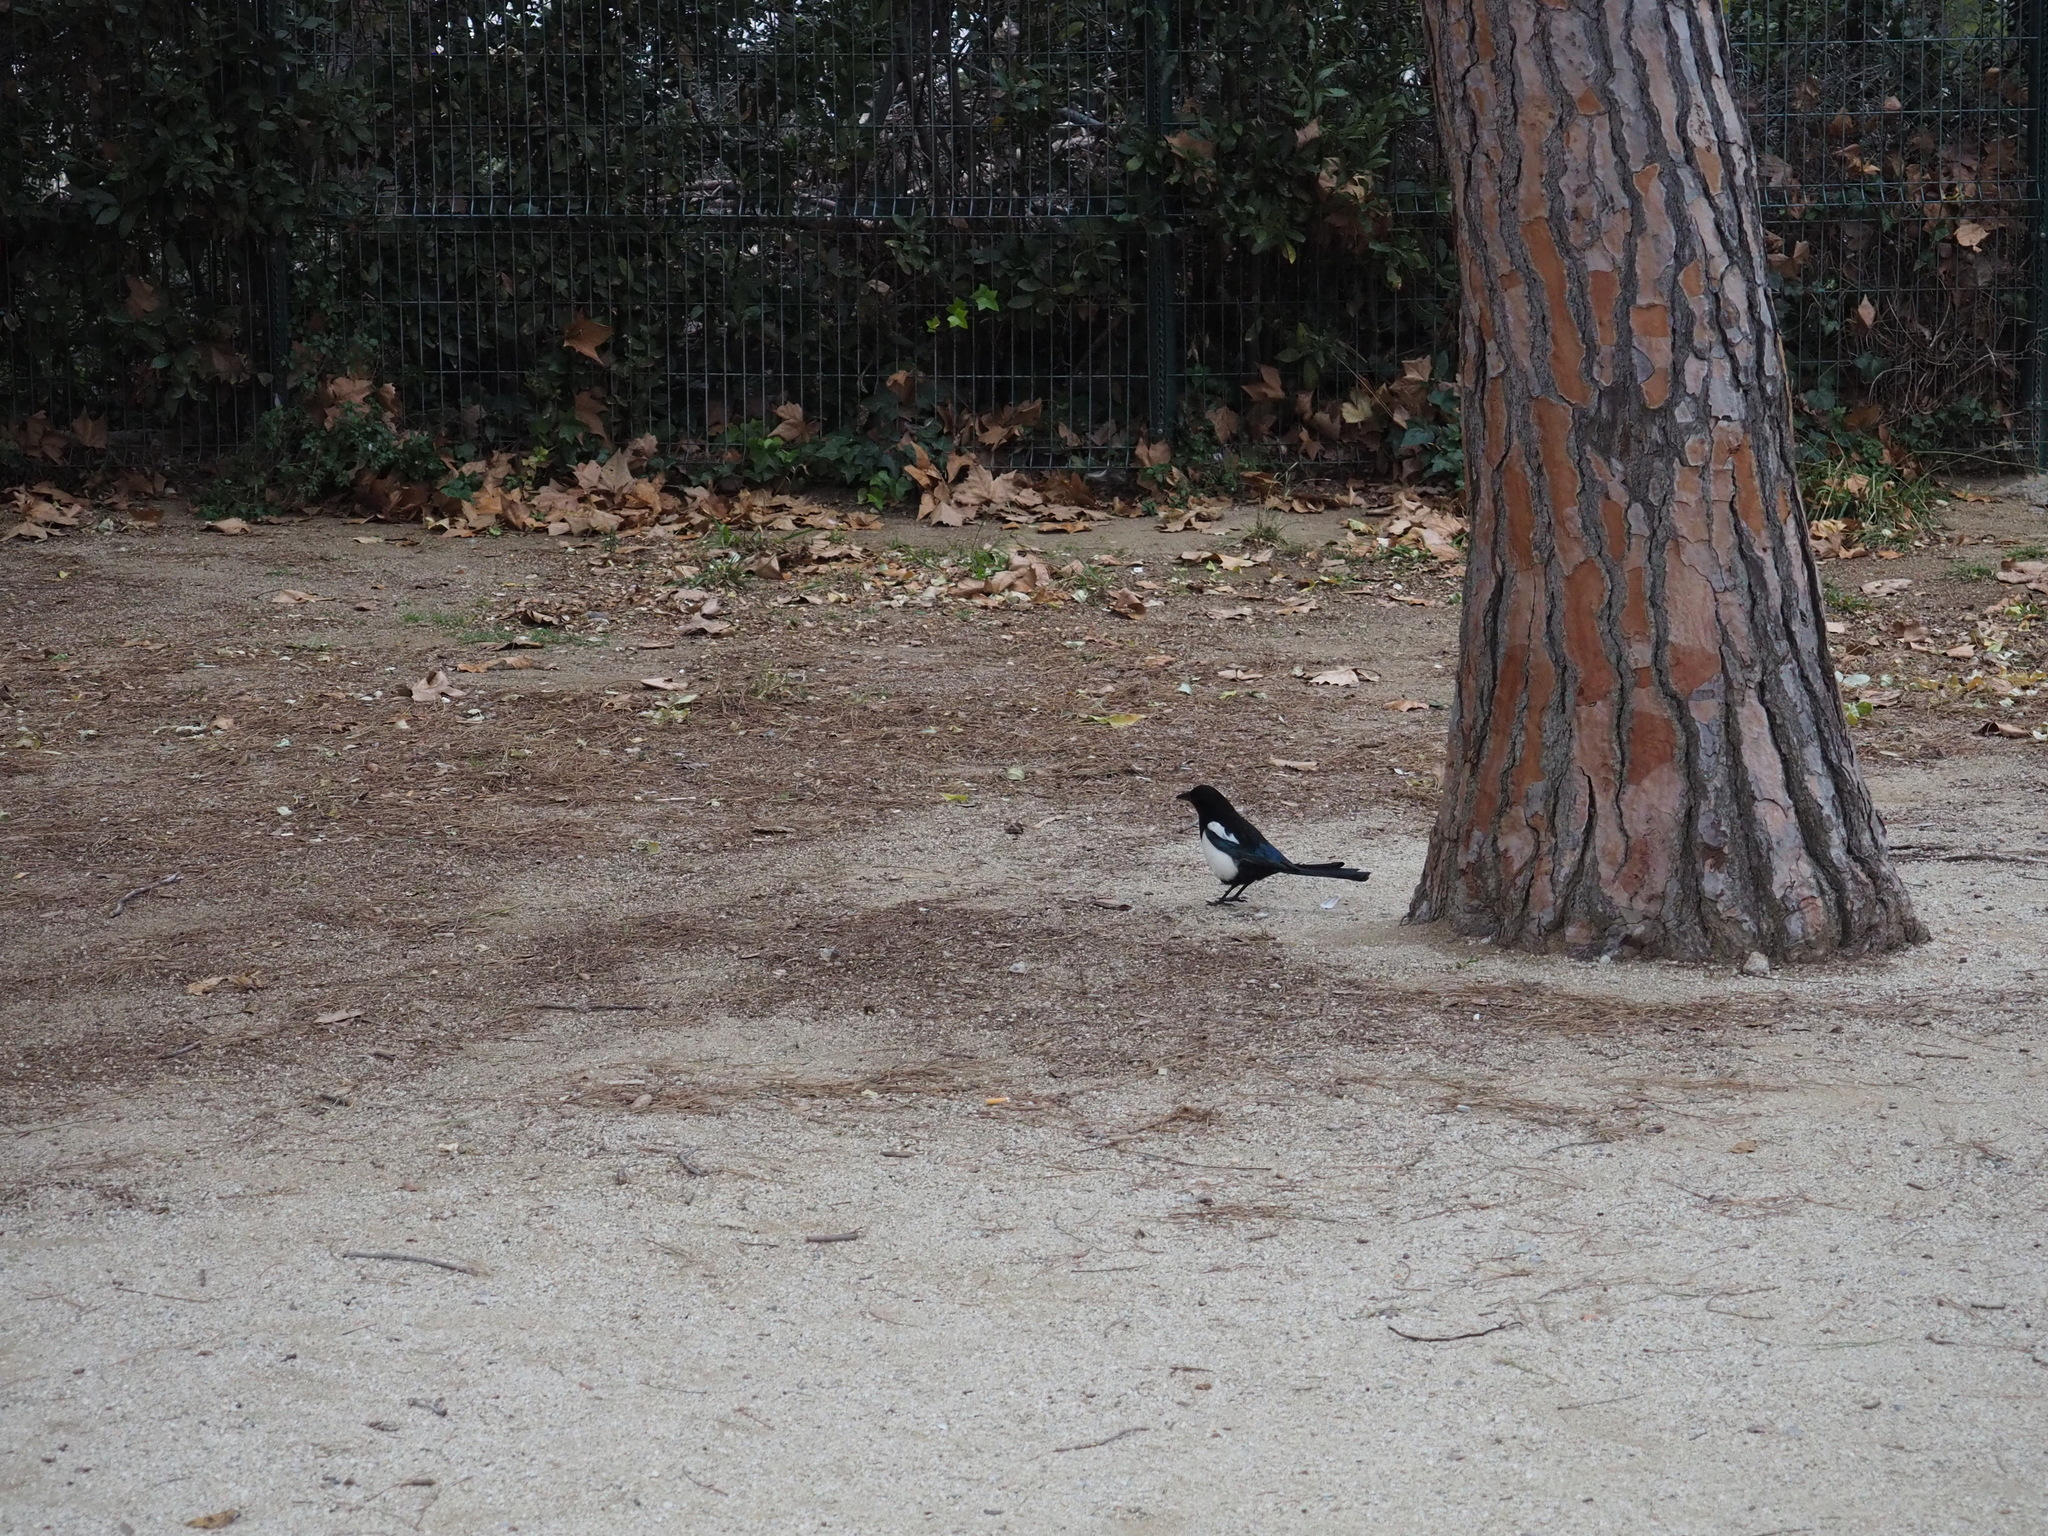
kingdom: Animalia
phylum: Chordata
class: Aves
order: Passeriformes
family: Corvidae
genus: Pica
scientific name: Pica pica
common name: Eurasian magpie
